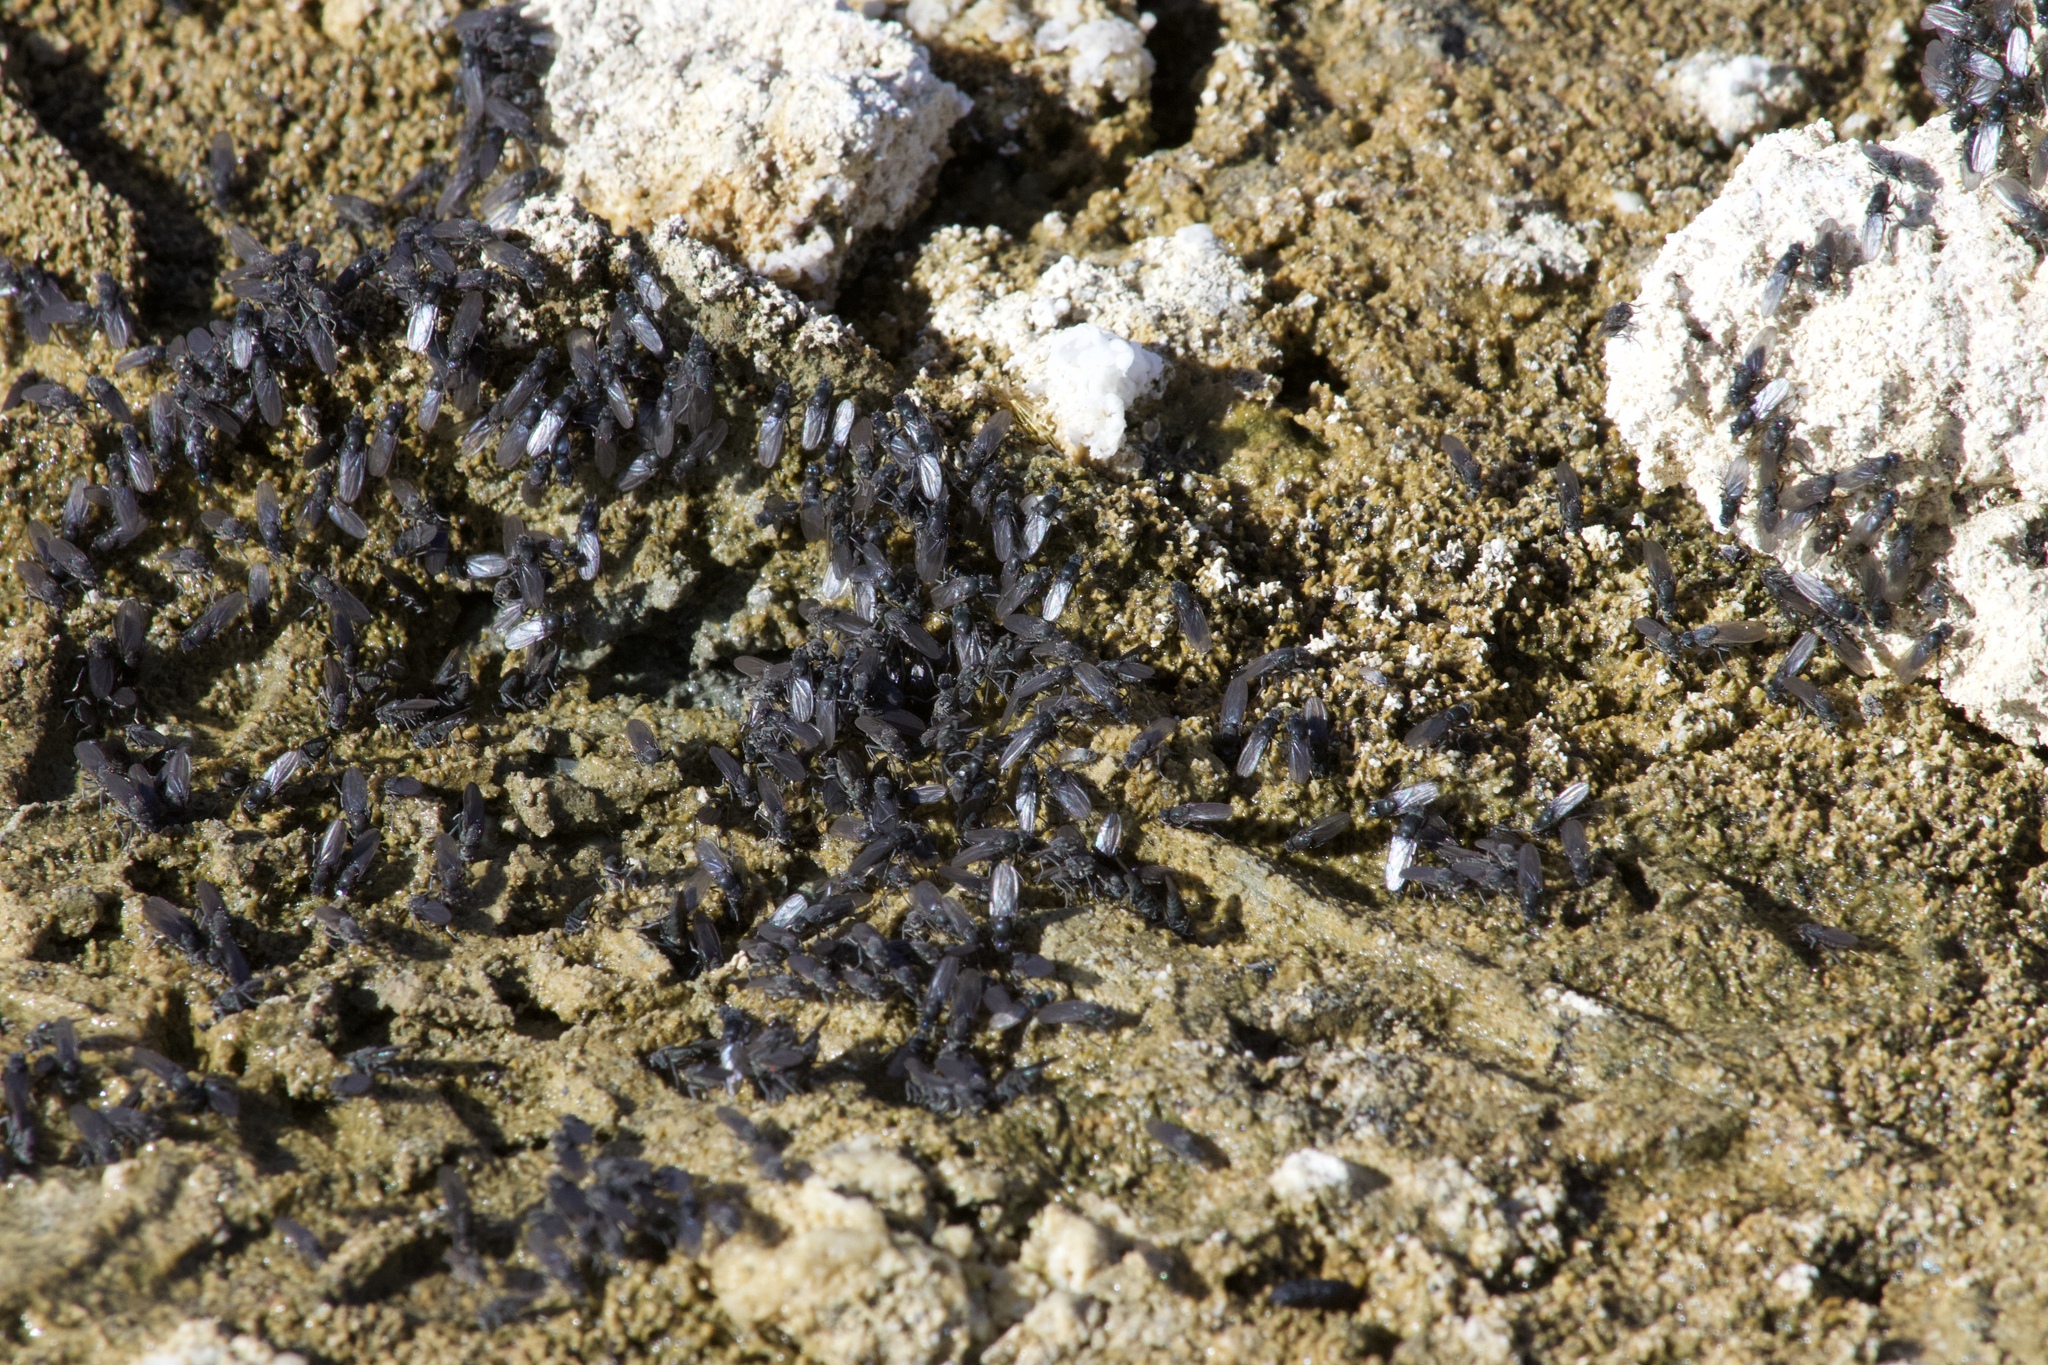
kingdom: Animalia
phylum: Arthropoda
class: Insecta
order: Diptera
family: Ephydridae
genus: Cirrula
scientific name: Cirrula hians
